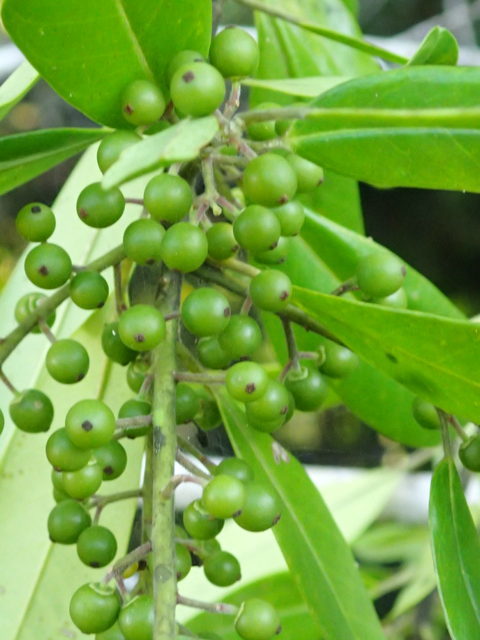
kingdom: Plantae
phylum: Tracheophyta
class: Magnoliopsida
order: Aquifoliales
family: Aquifoliaceae
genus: Ilex
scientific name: Ilex cassine
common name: Dahoon
